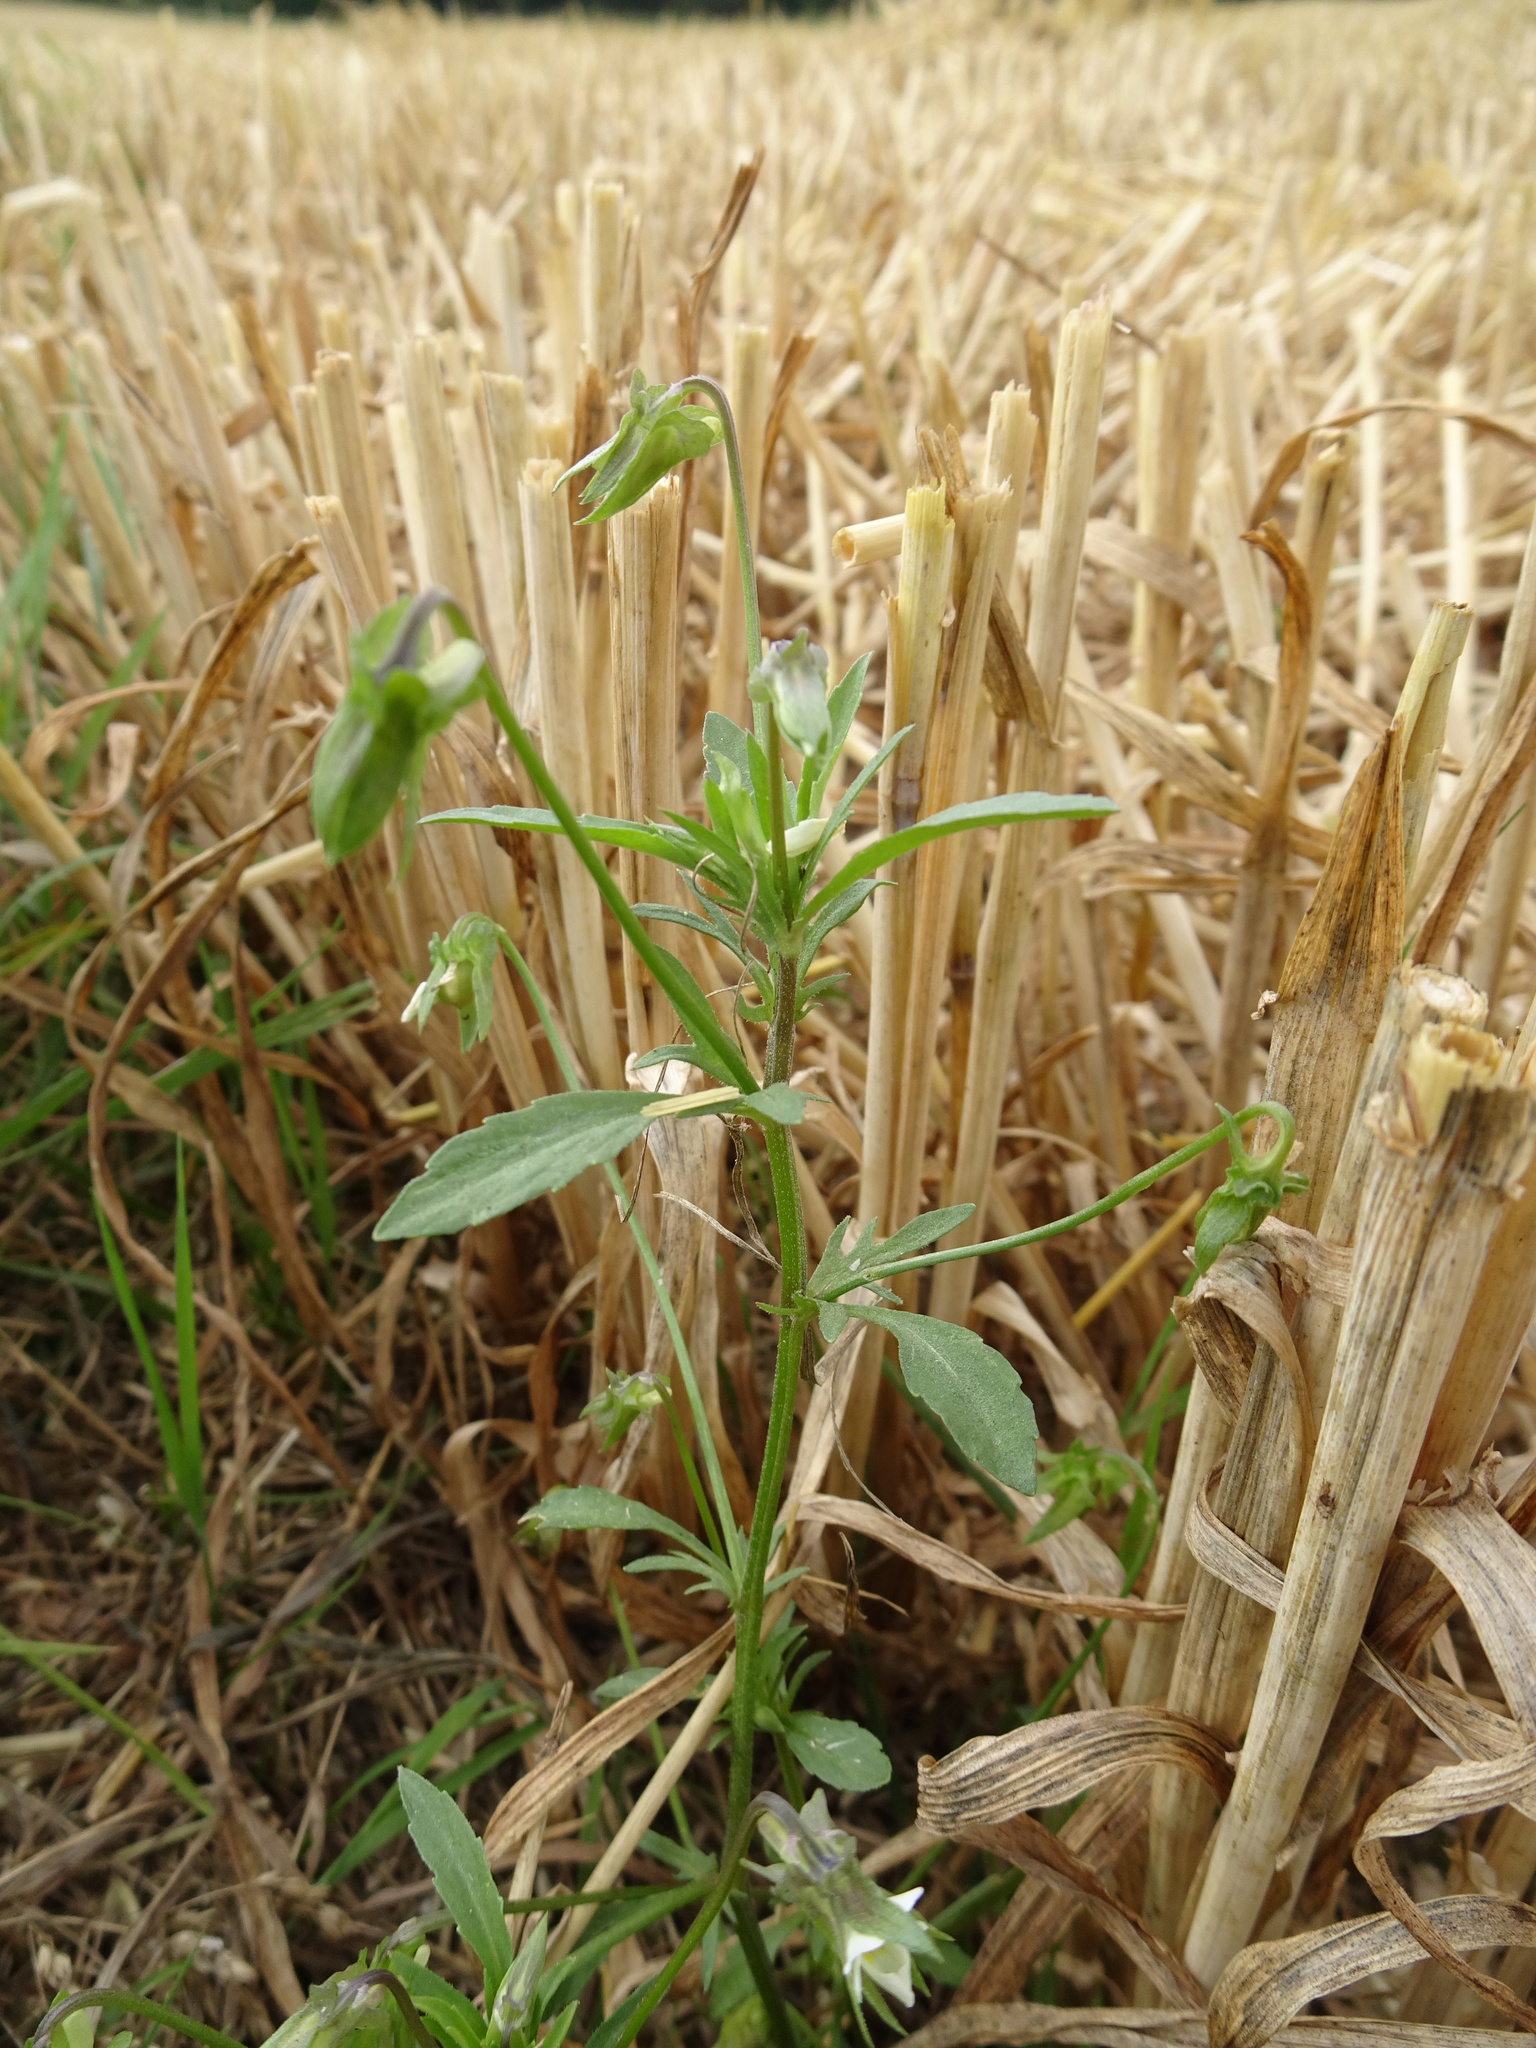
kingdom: Plantae
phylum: Tracheophyta
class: Magnoliopsida
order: Malpighiales
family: Violaceae
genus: Viola
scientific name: Viola arvensis
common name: Field pansy
